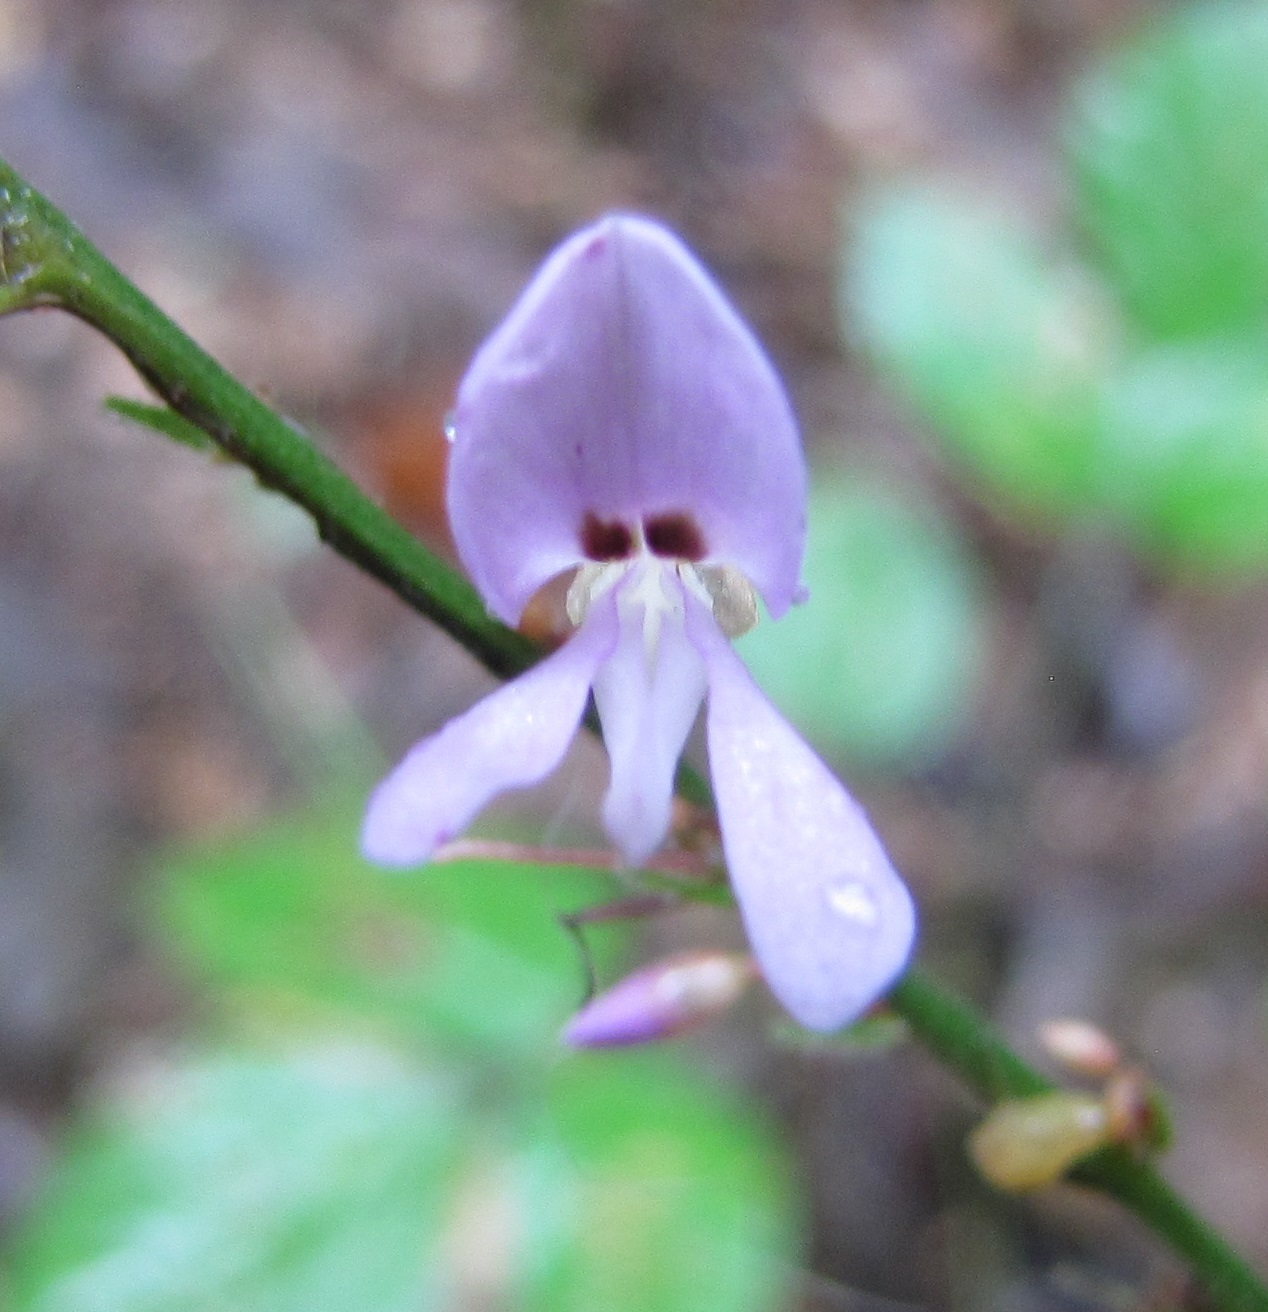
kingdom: Plantae
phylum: Tracheophyta
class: Magnoliopsida
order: Fabales
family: Fabaceae
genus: Hylodesmum
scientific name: Hylodesmum nudiflorum
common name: Bare-stemmed tick-trefoil
